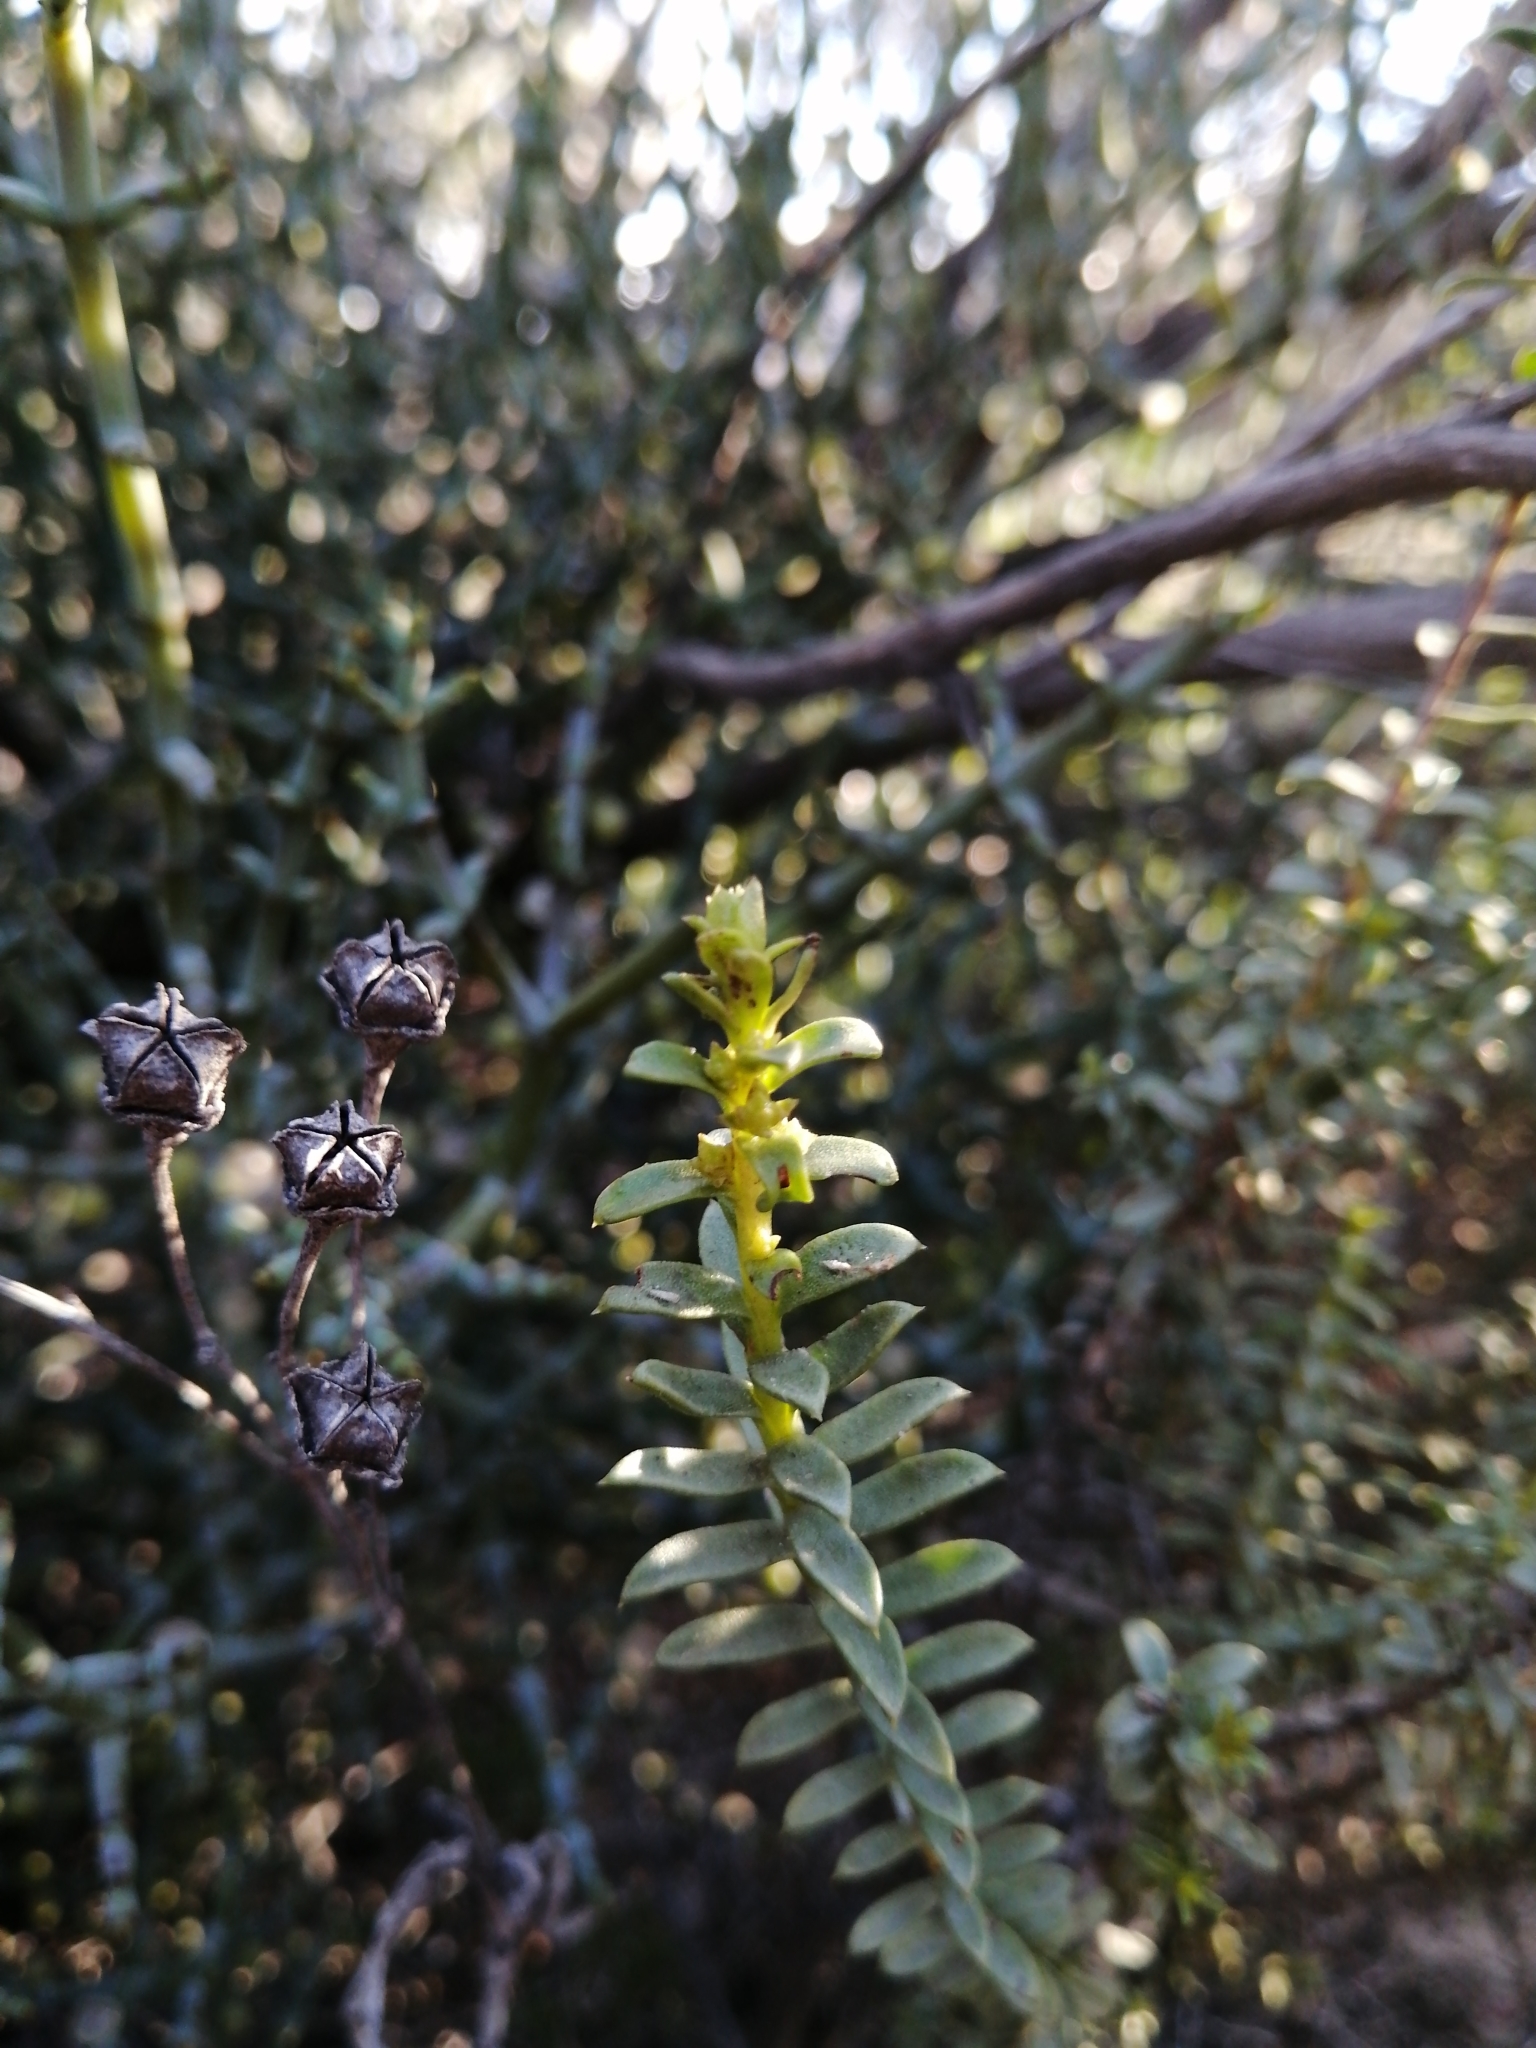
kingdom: Plantae
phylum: Tracheophyta
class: Magnoliopsida
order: Asterales
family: Asteraceae
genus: Oedera
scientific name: Oedera squarrosa
